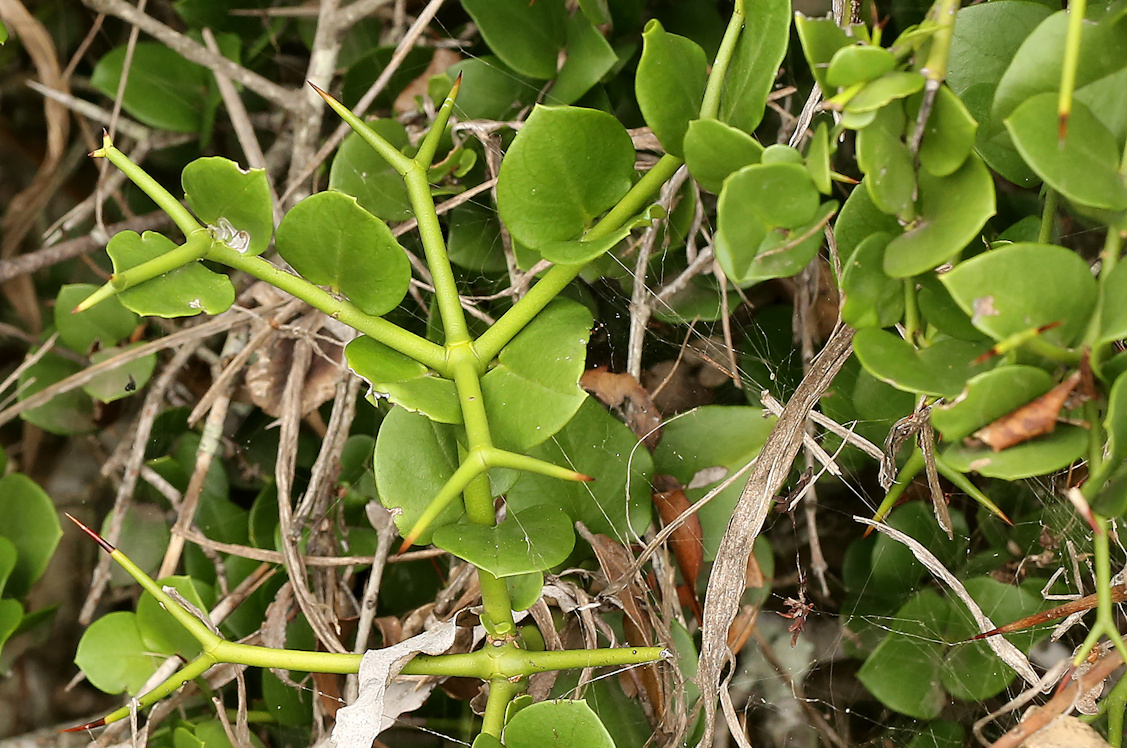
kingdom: Plantae
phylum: Tracheophyta
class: Magnoliopsida
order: Gentianales
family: Apocynaceae
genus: Carissa
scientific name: Carissa bispinosa
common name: Forest num-num
